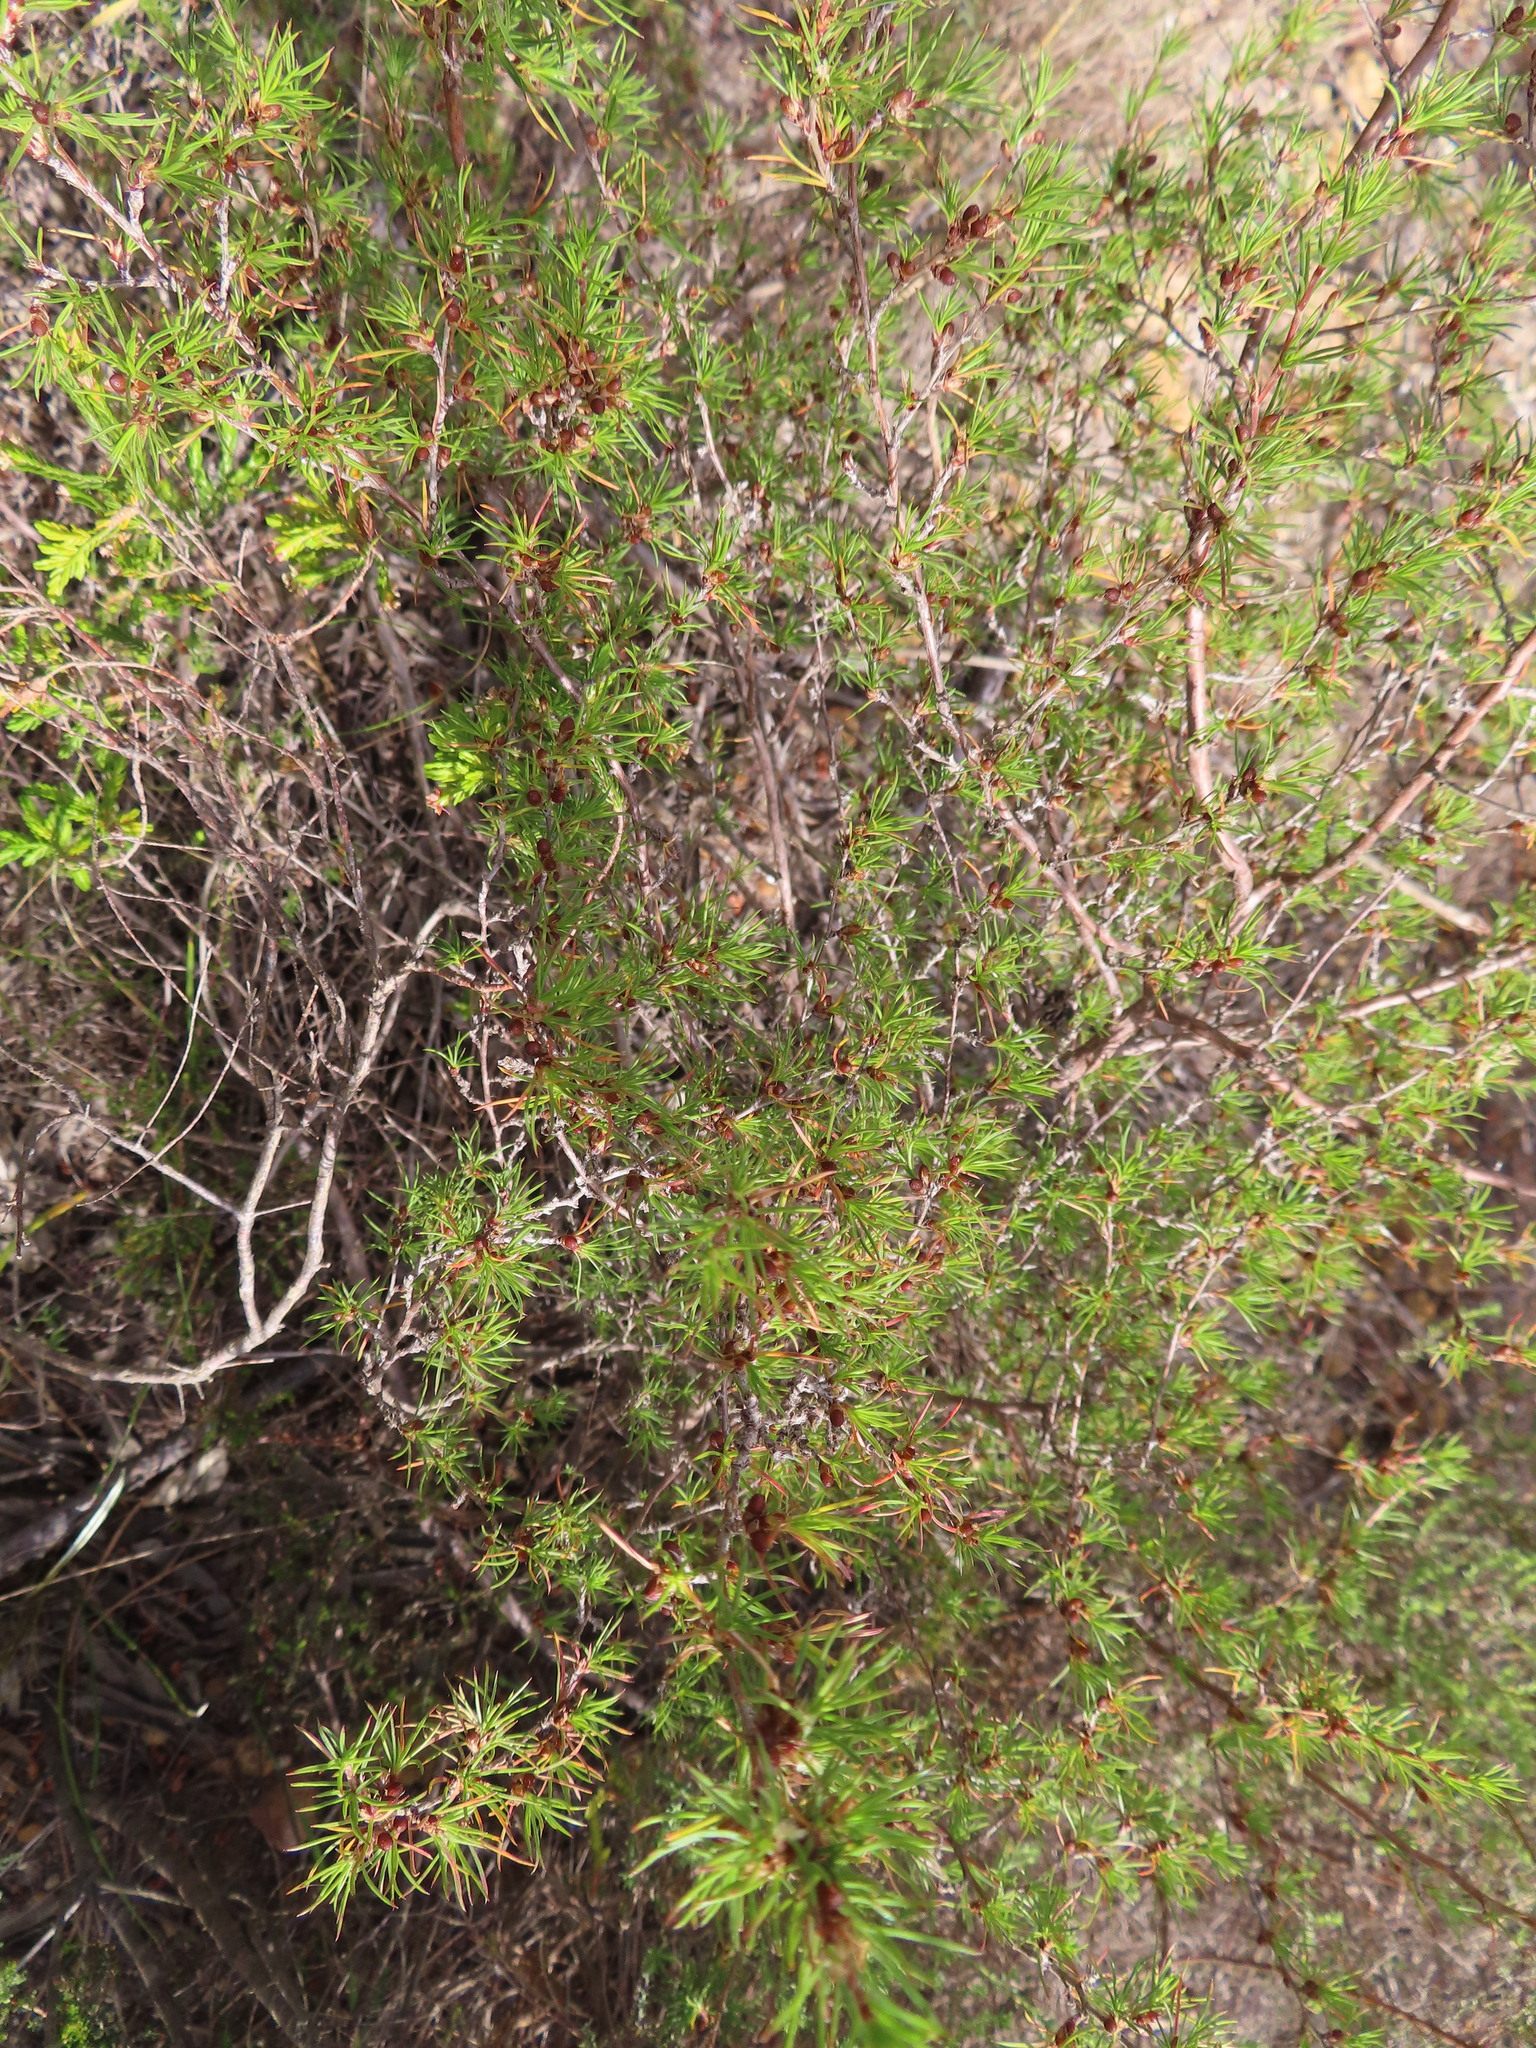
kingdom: Plantae
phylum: Tracheophyta
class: Magnoliopsida
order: Rosales
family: Rosaceae
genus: Cliffortia
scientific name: Cliffortia atrata
